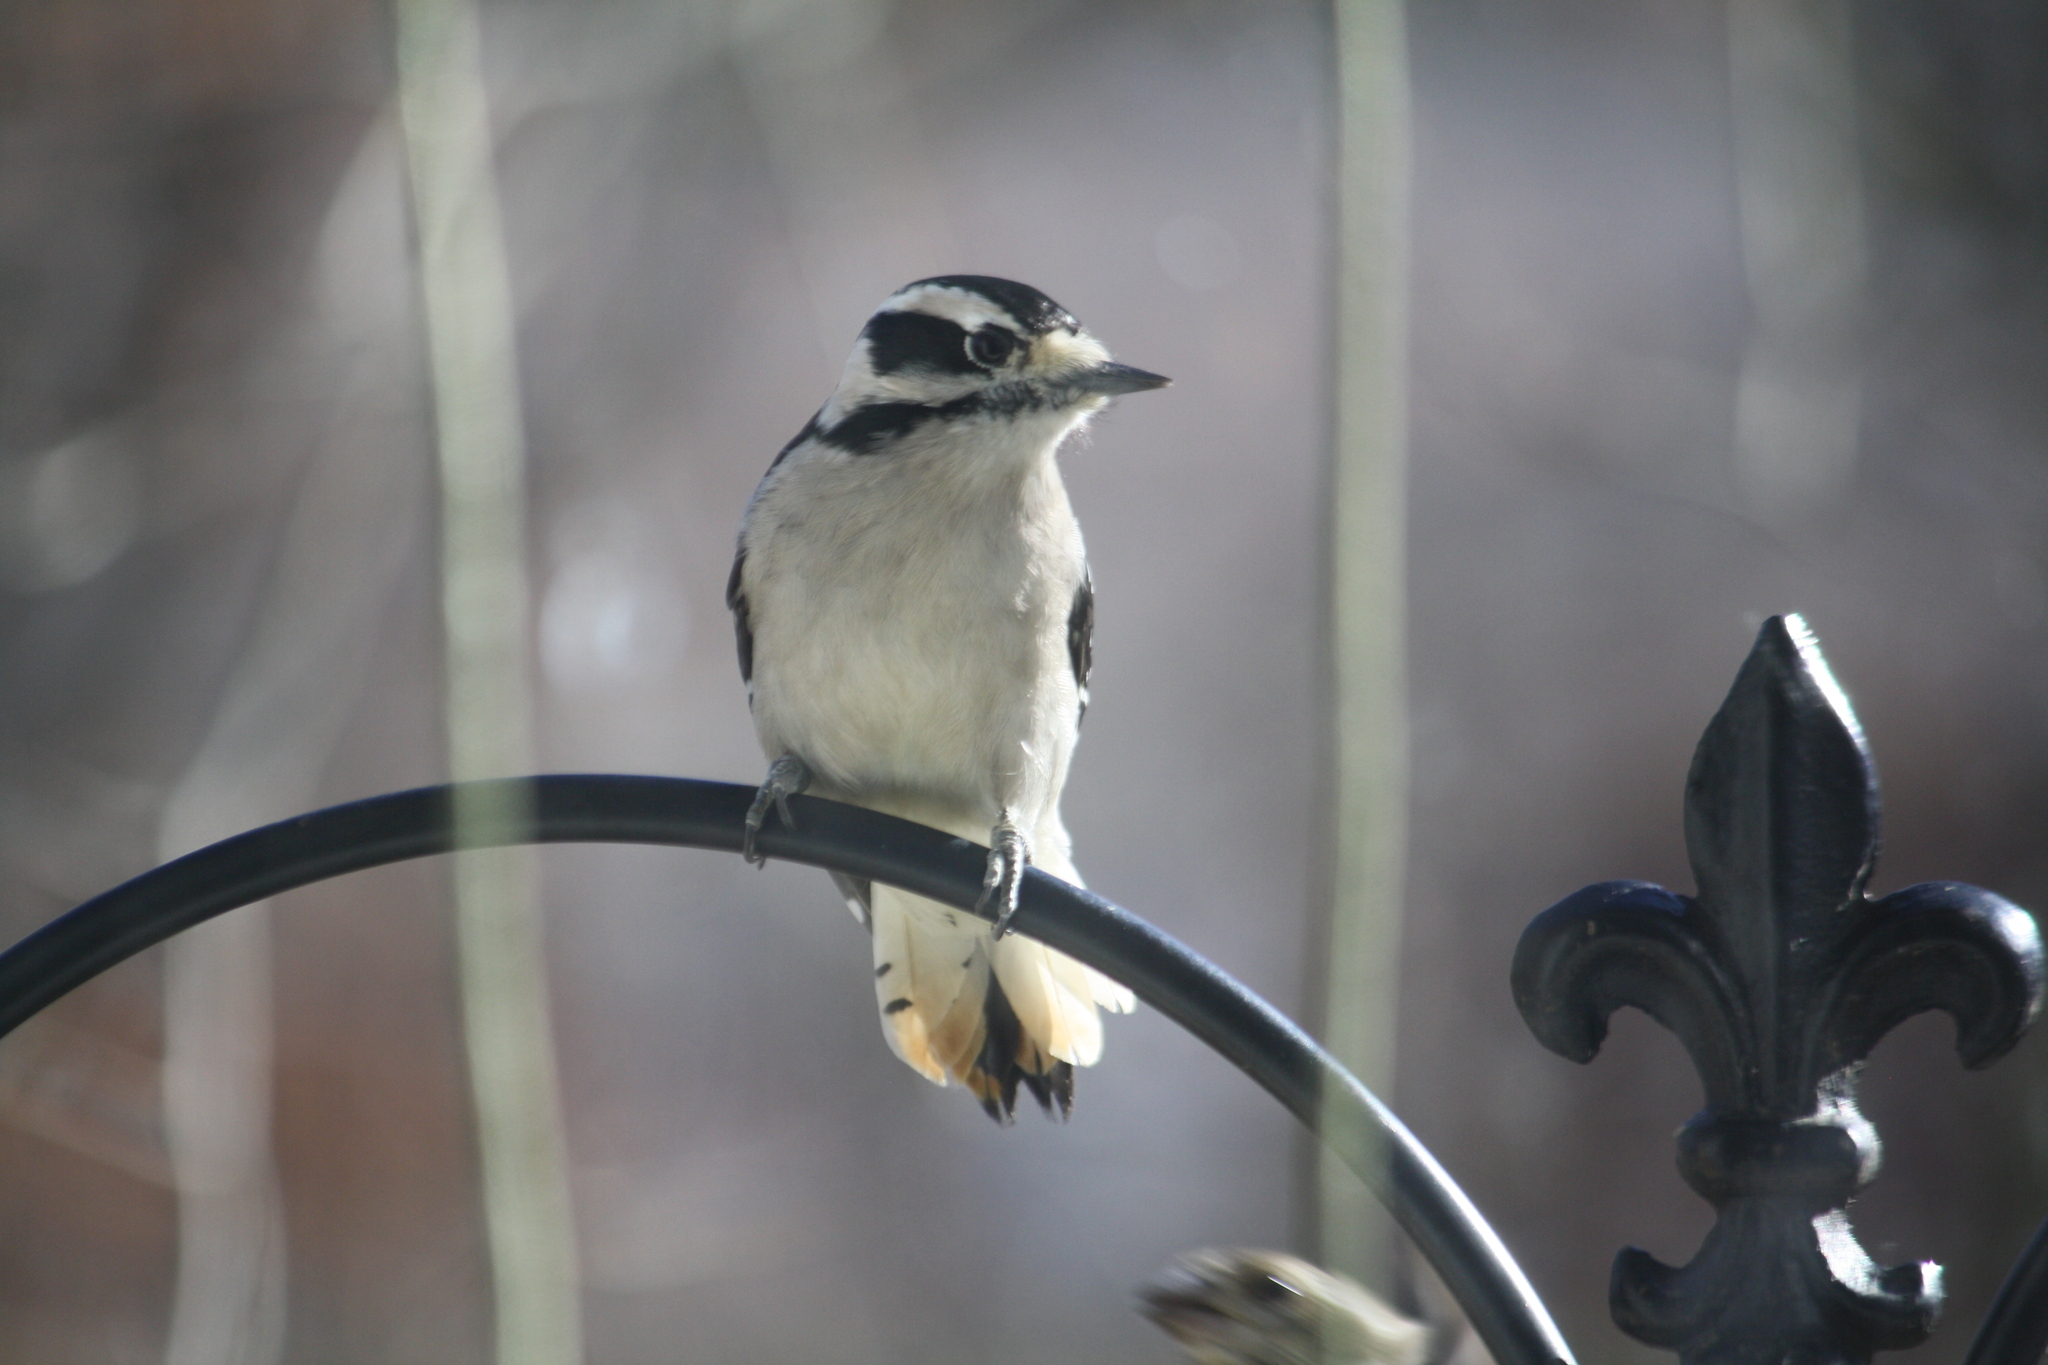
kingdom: Animalia
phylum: Chordata
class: Aves
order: Piciformes
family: Picidae
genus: Dryobates
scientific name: Dryobates pubescens
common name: Downy woodpecker
